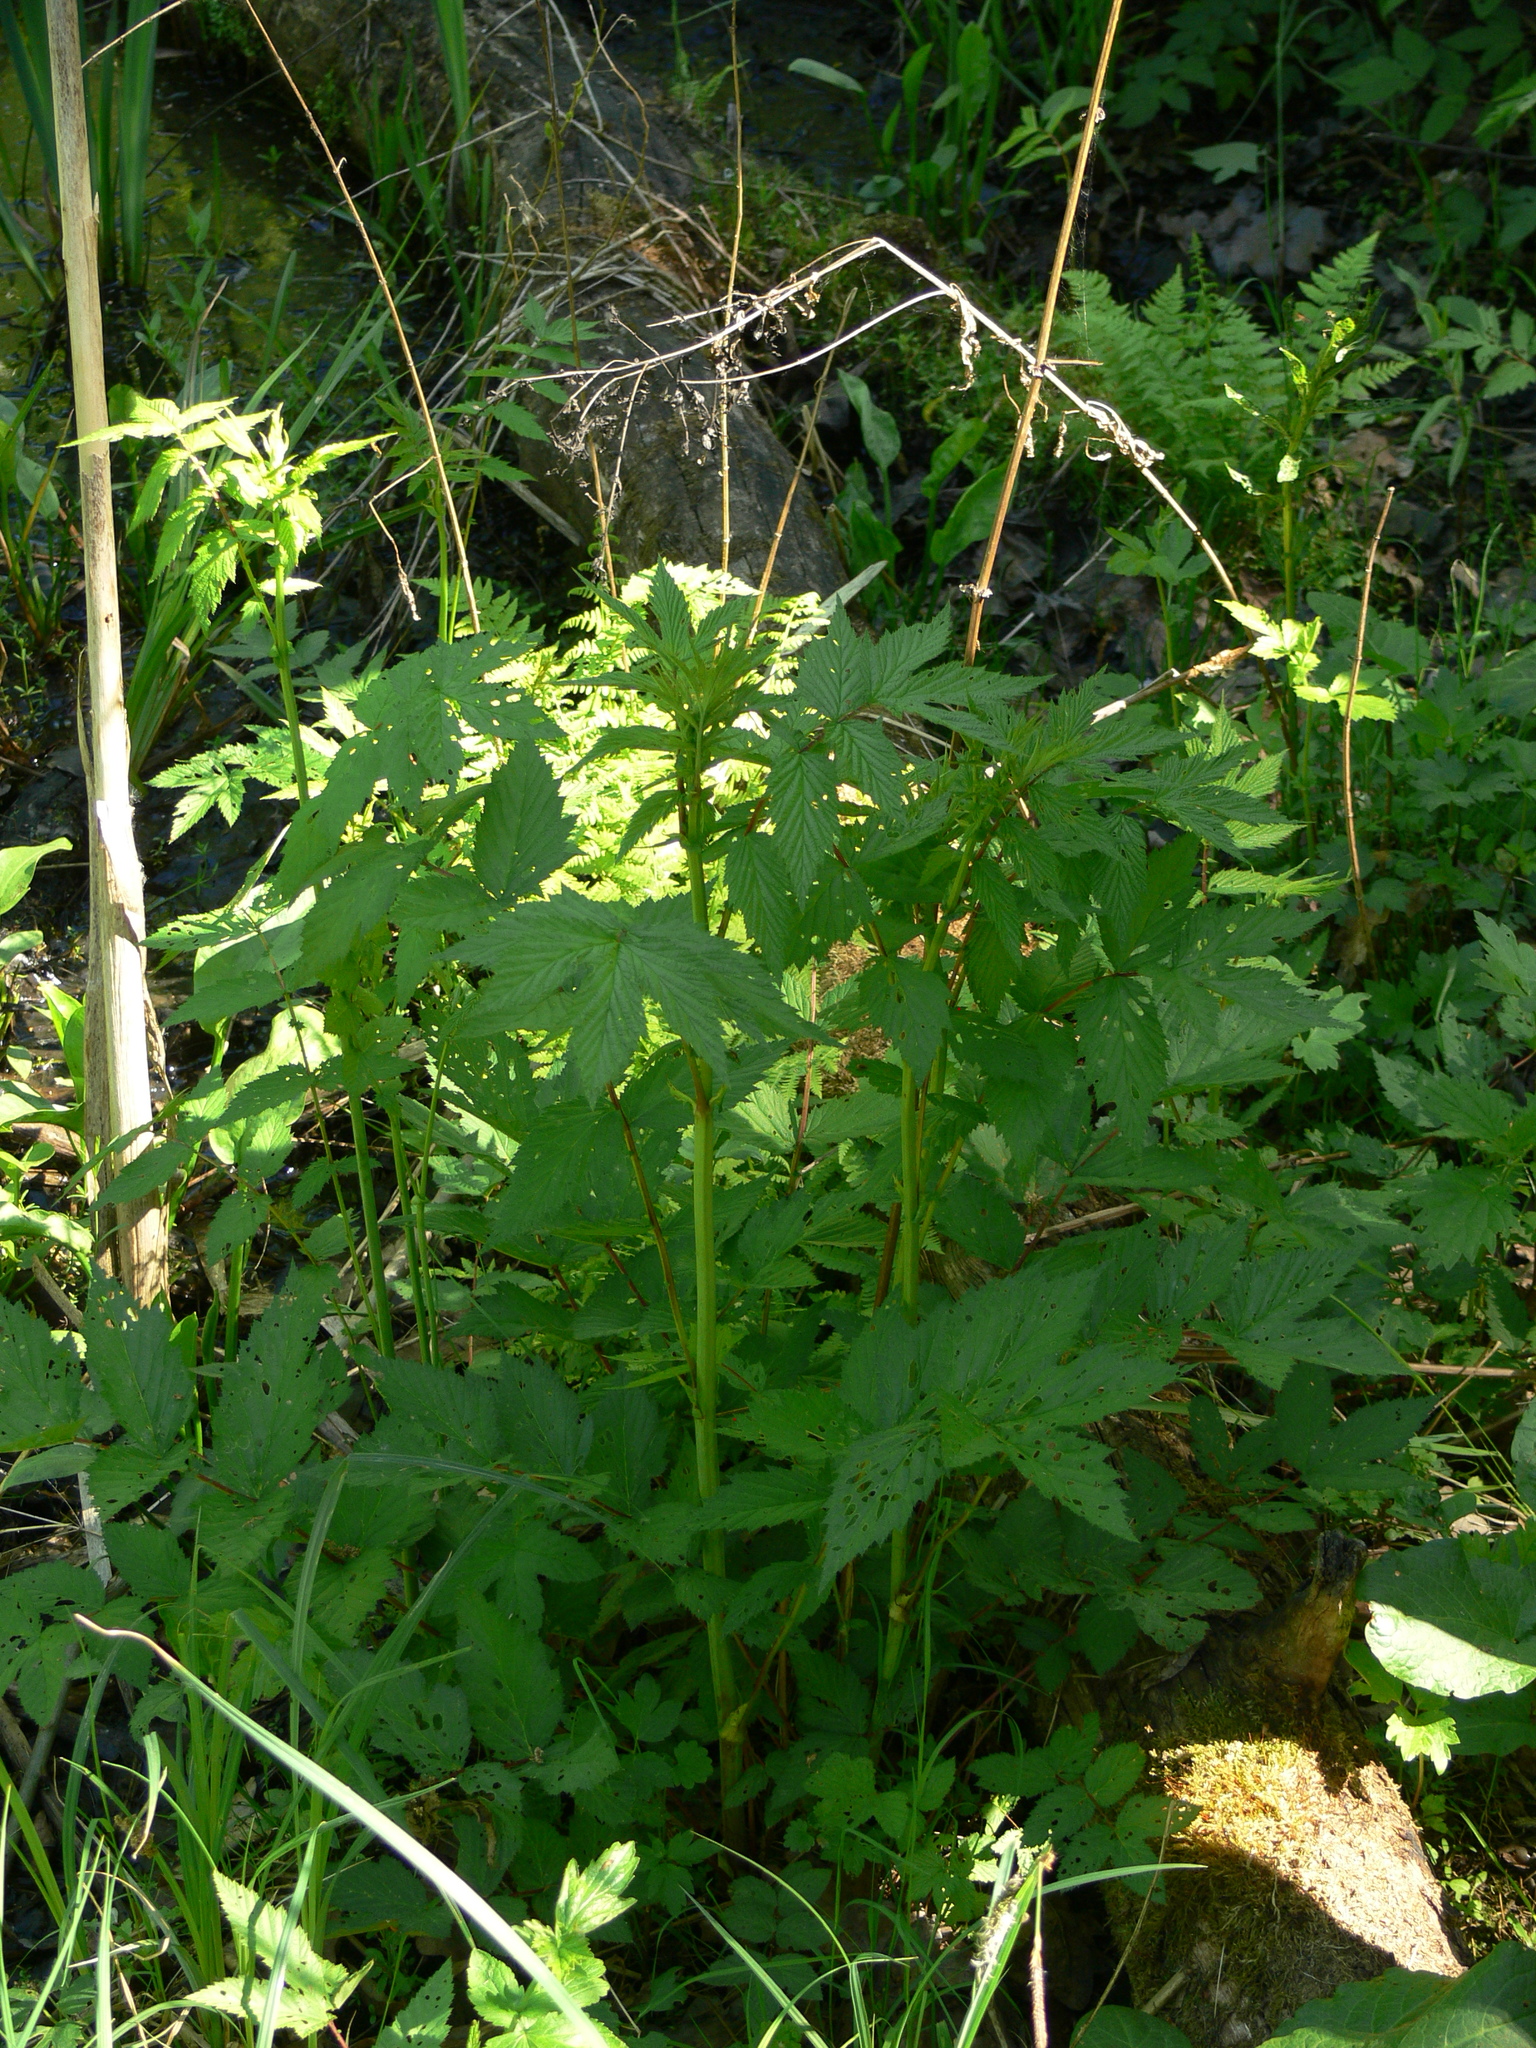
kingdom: Plantae
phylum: Tracheophyta
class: Magnoliopsida
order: Rosales
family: Rosaceae
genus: Filipendula
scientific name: Filipendula ulmaria
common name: Meadowsweet
